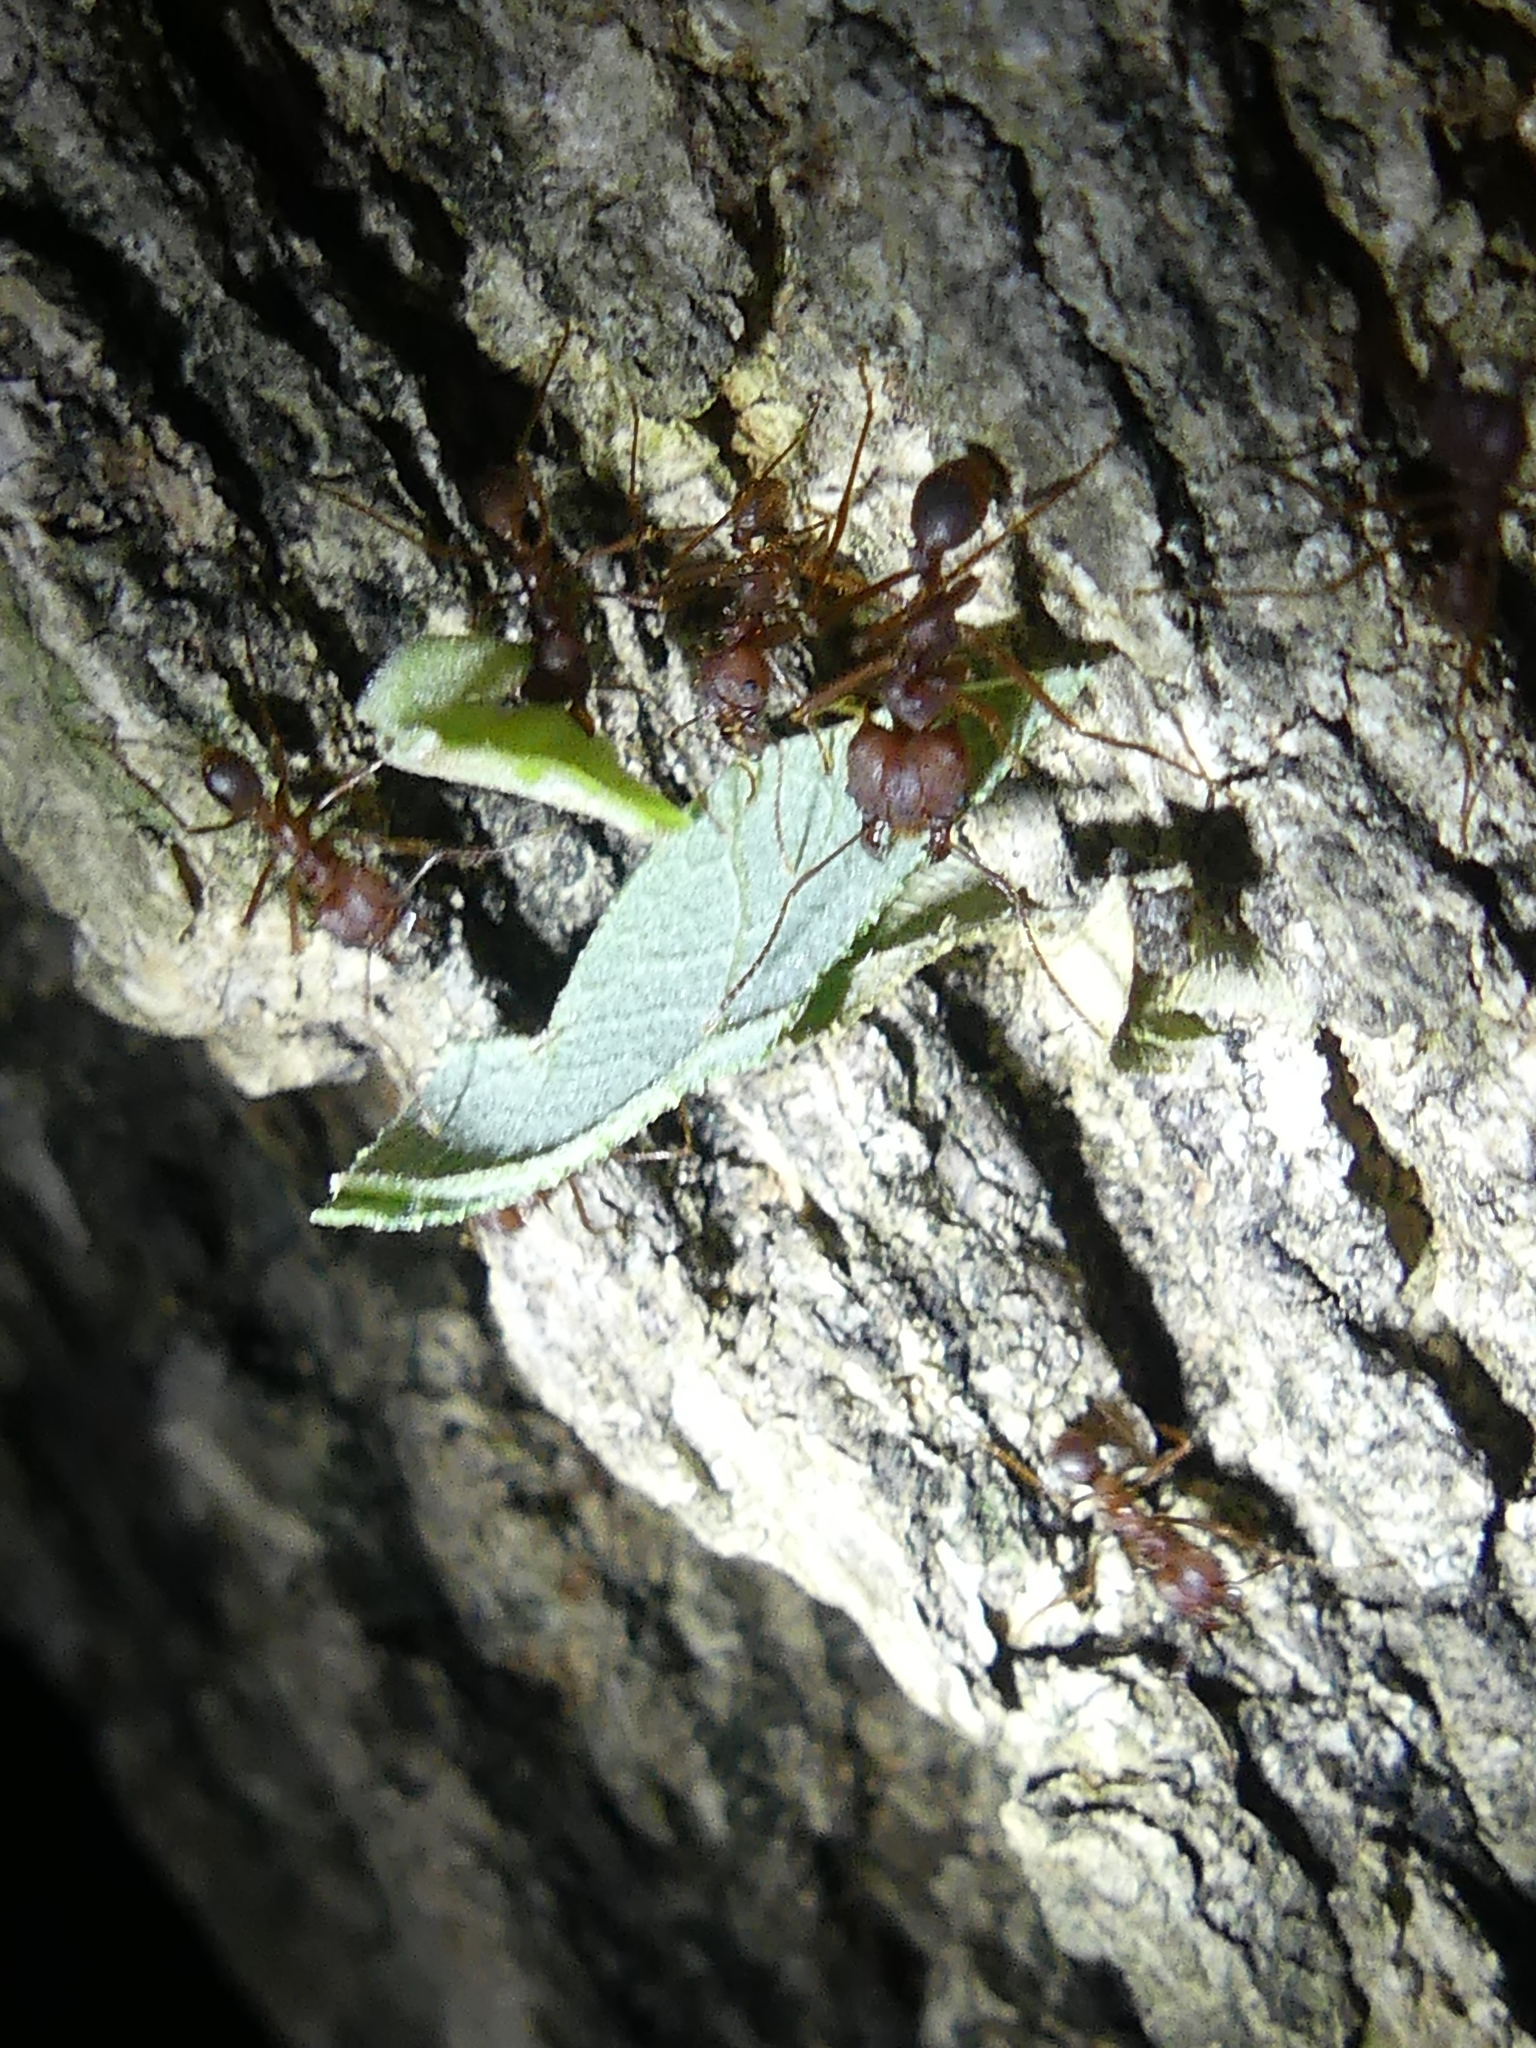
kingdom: Animalia
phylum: Arthropoda
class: Insecta
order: Hymenoptera
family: Formicidae
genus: Atta
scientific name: Atta texana
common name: Texas leafcutting ant
